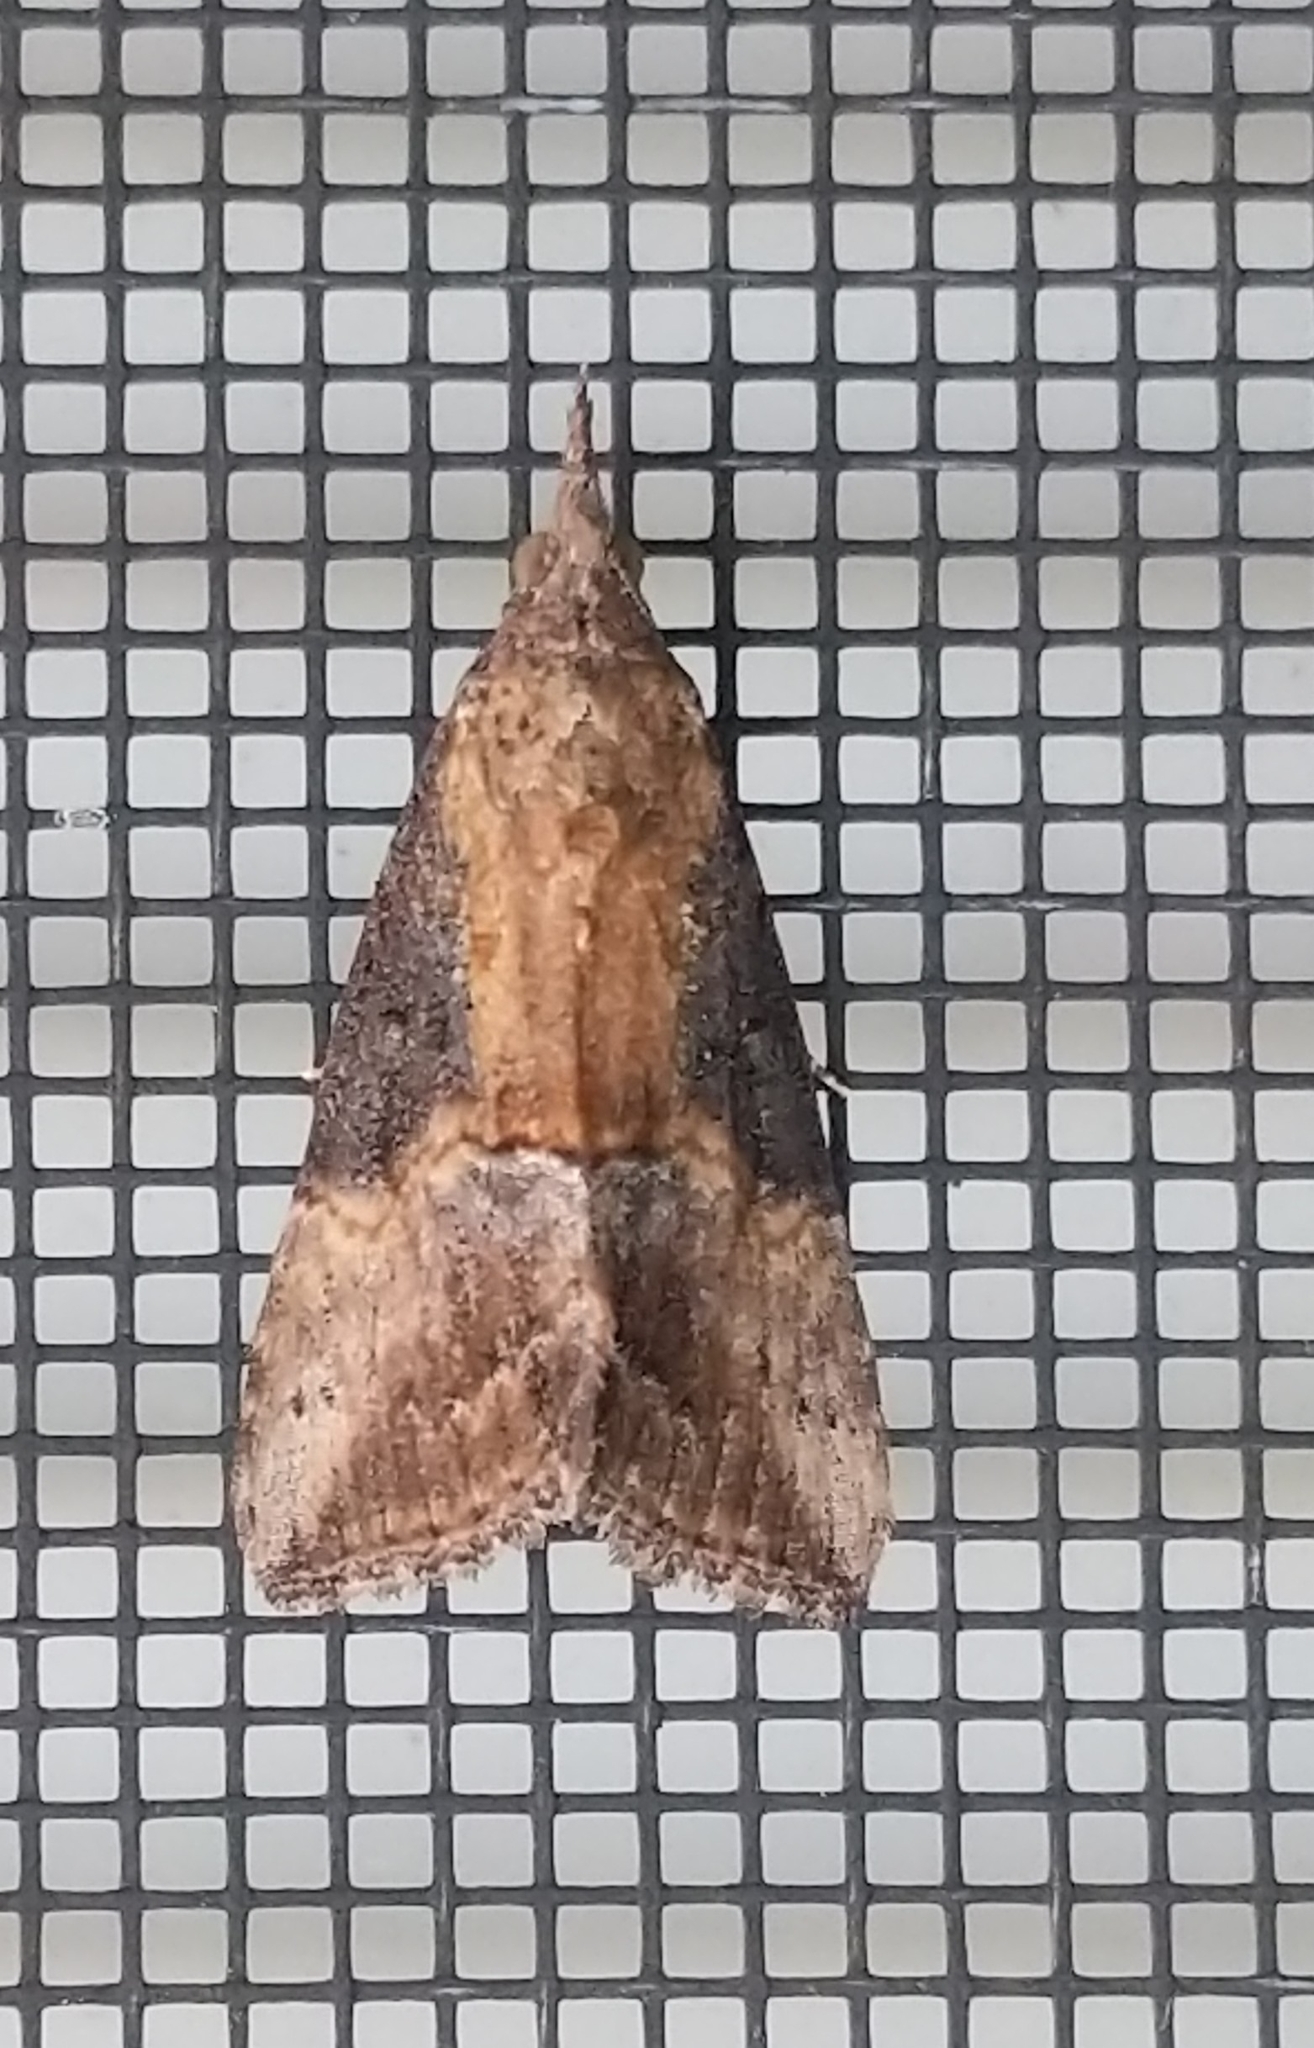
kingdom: Animalia
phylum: Arthropoda
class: Insecta
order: Lepidoptera
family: Erebidae
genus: Hypena
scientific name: Hypena scabra
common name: Green cloverworm
